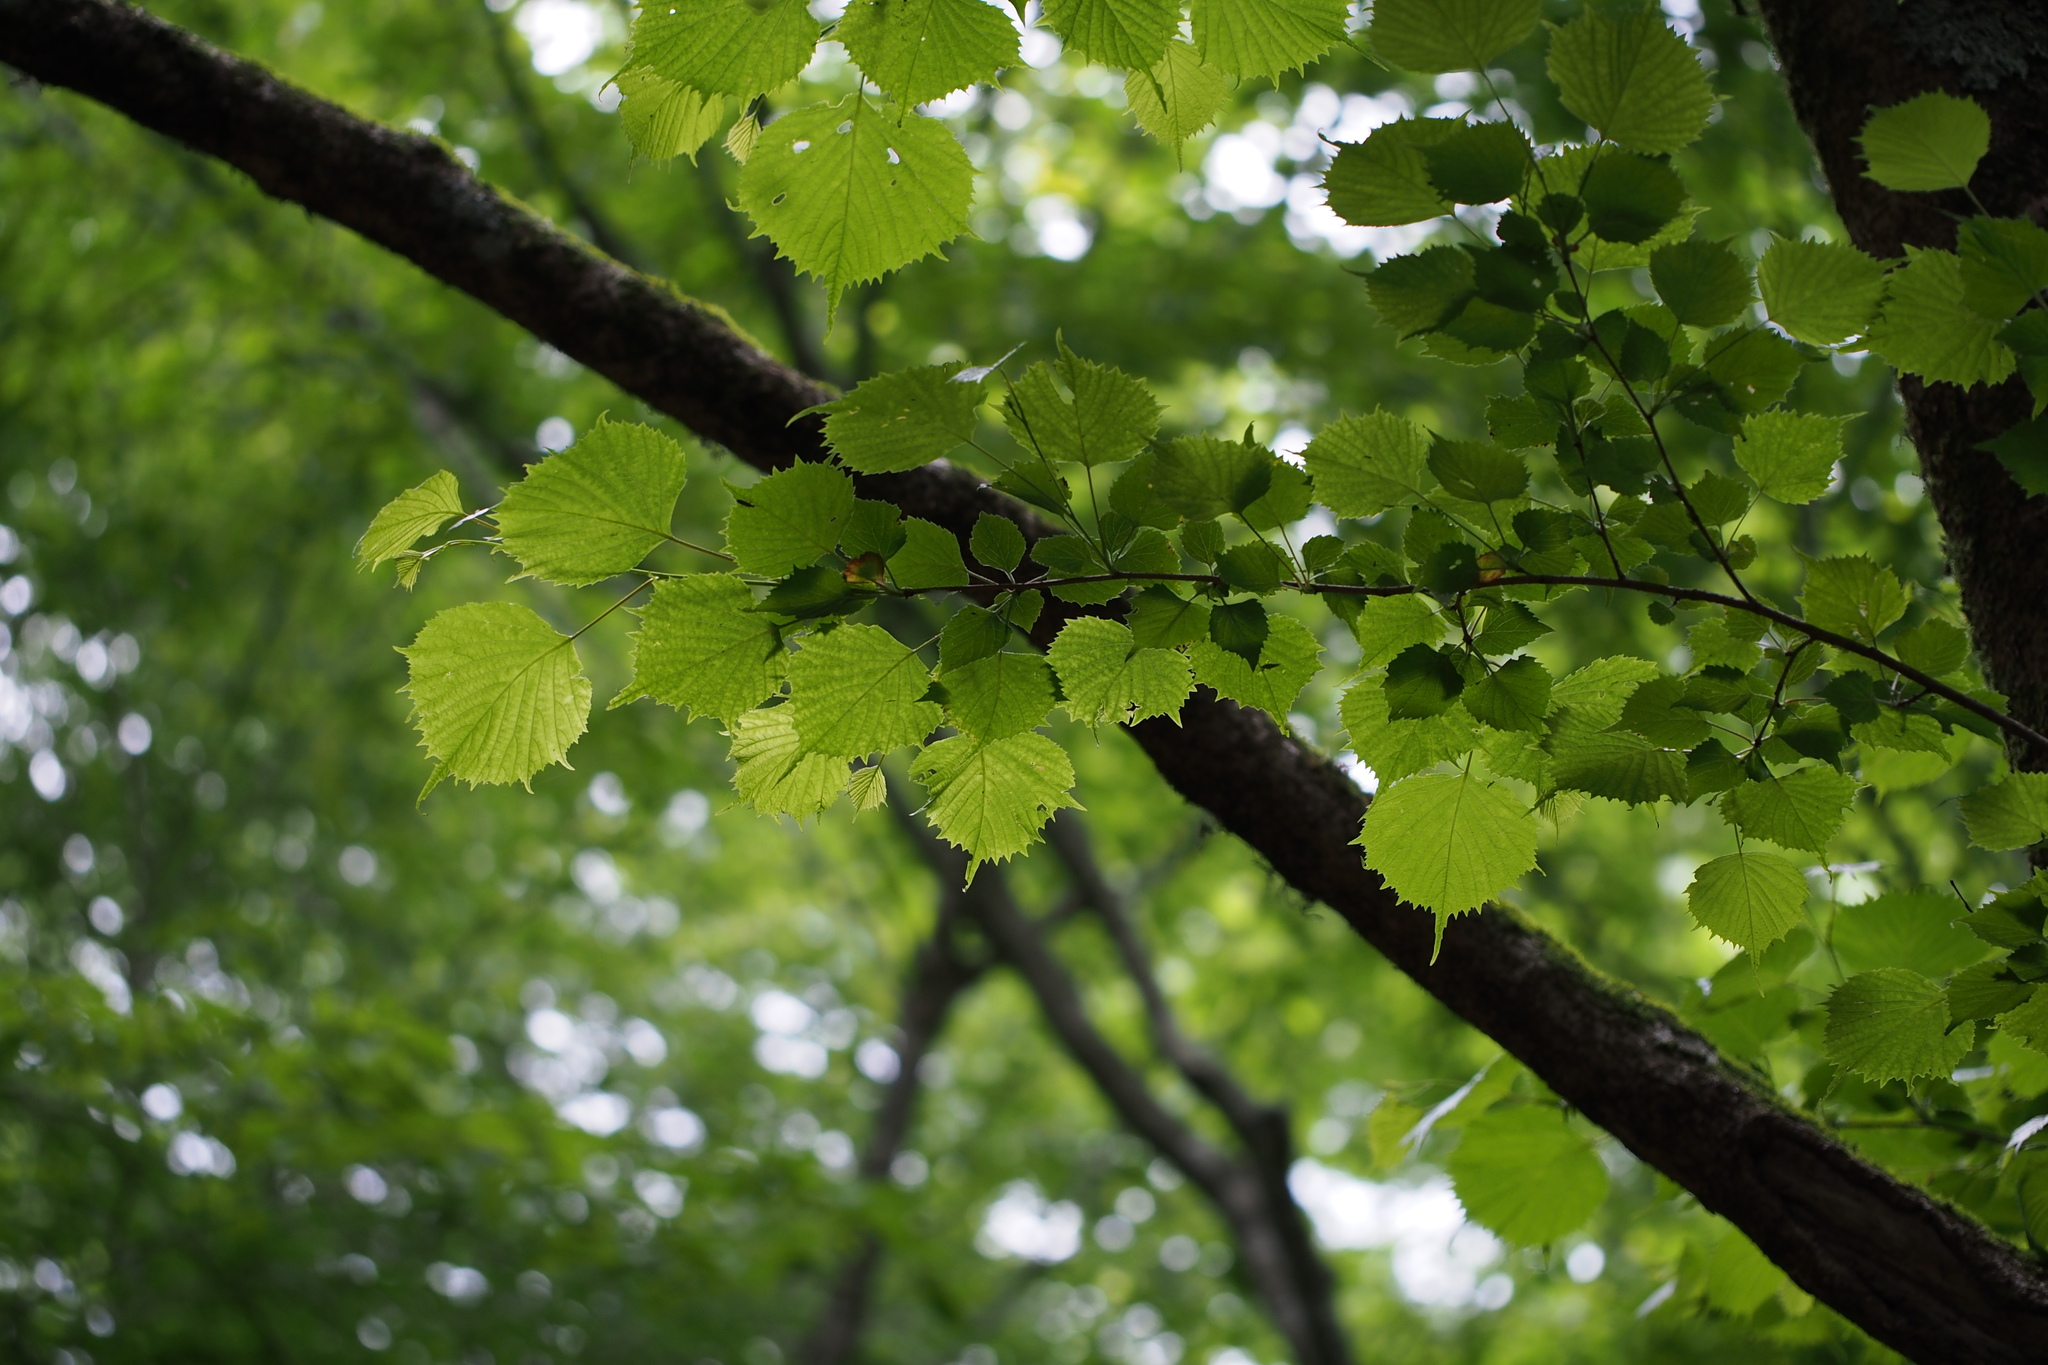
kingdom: Plantae
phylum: Tracheophyta
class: Magnoliopsida
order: Ranunculales
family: Eupteleaceae
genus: Euptelea
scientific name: Euptelea polyandra
